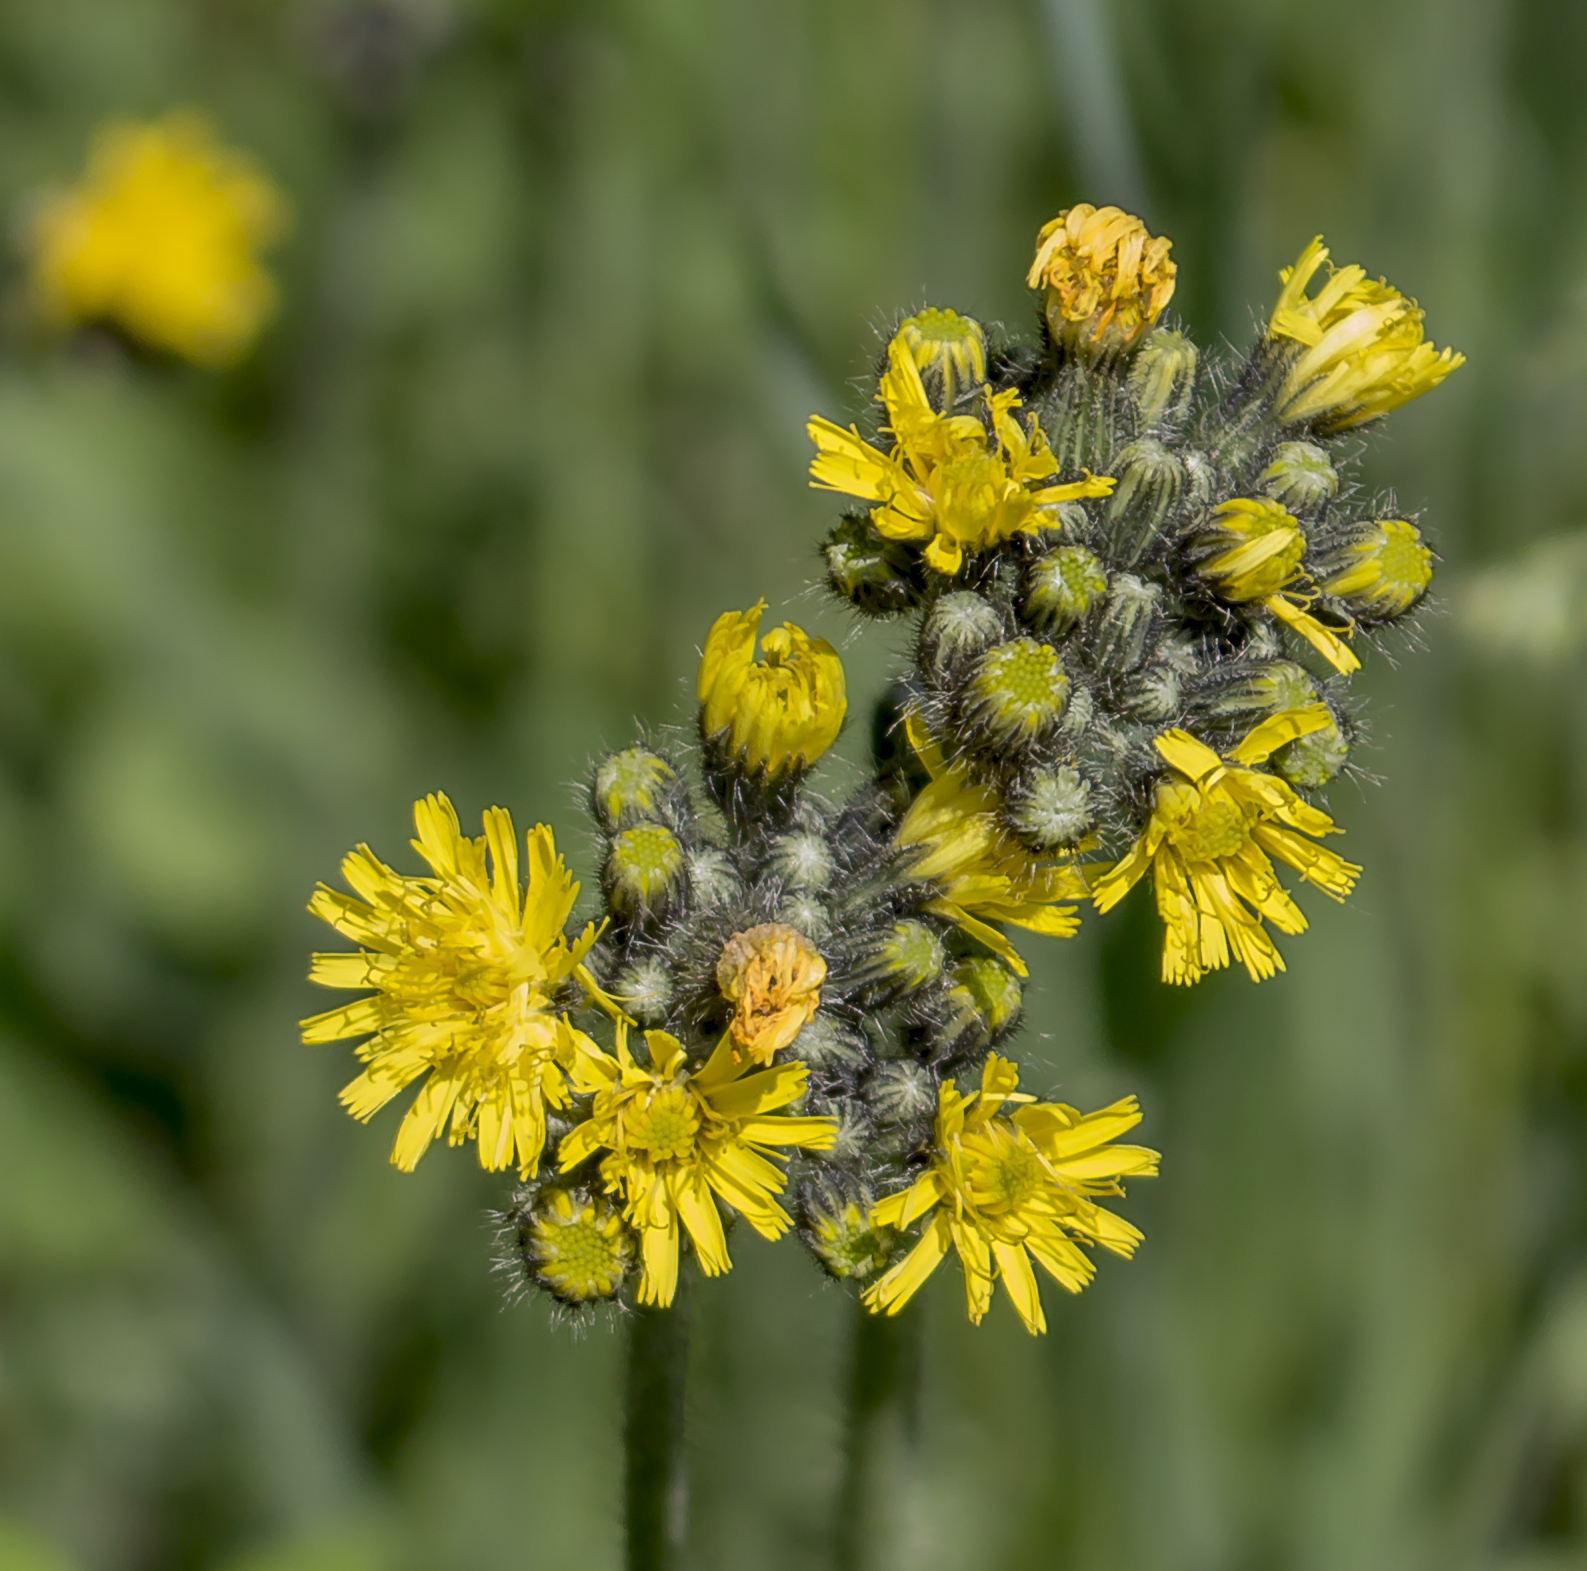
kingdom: Plantae
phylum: Tracheophyta
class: Magnoliopsida
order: Asterales
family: Asteraceae
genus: Pilosella
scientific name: Pilosella caespitosa
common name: Yellow fox-and-cubs
